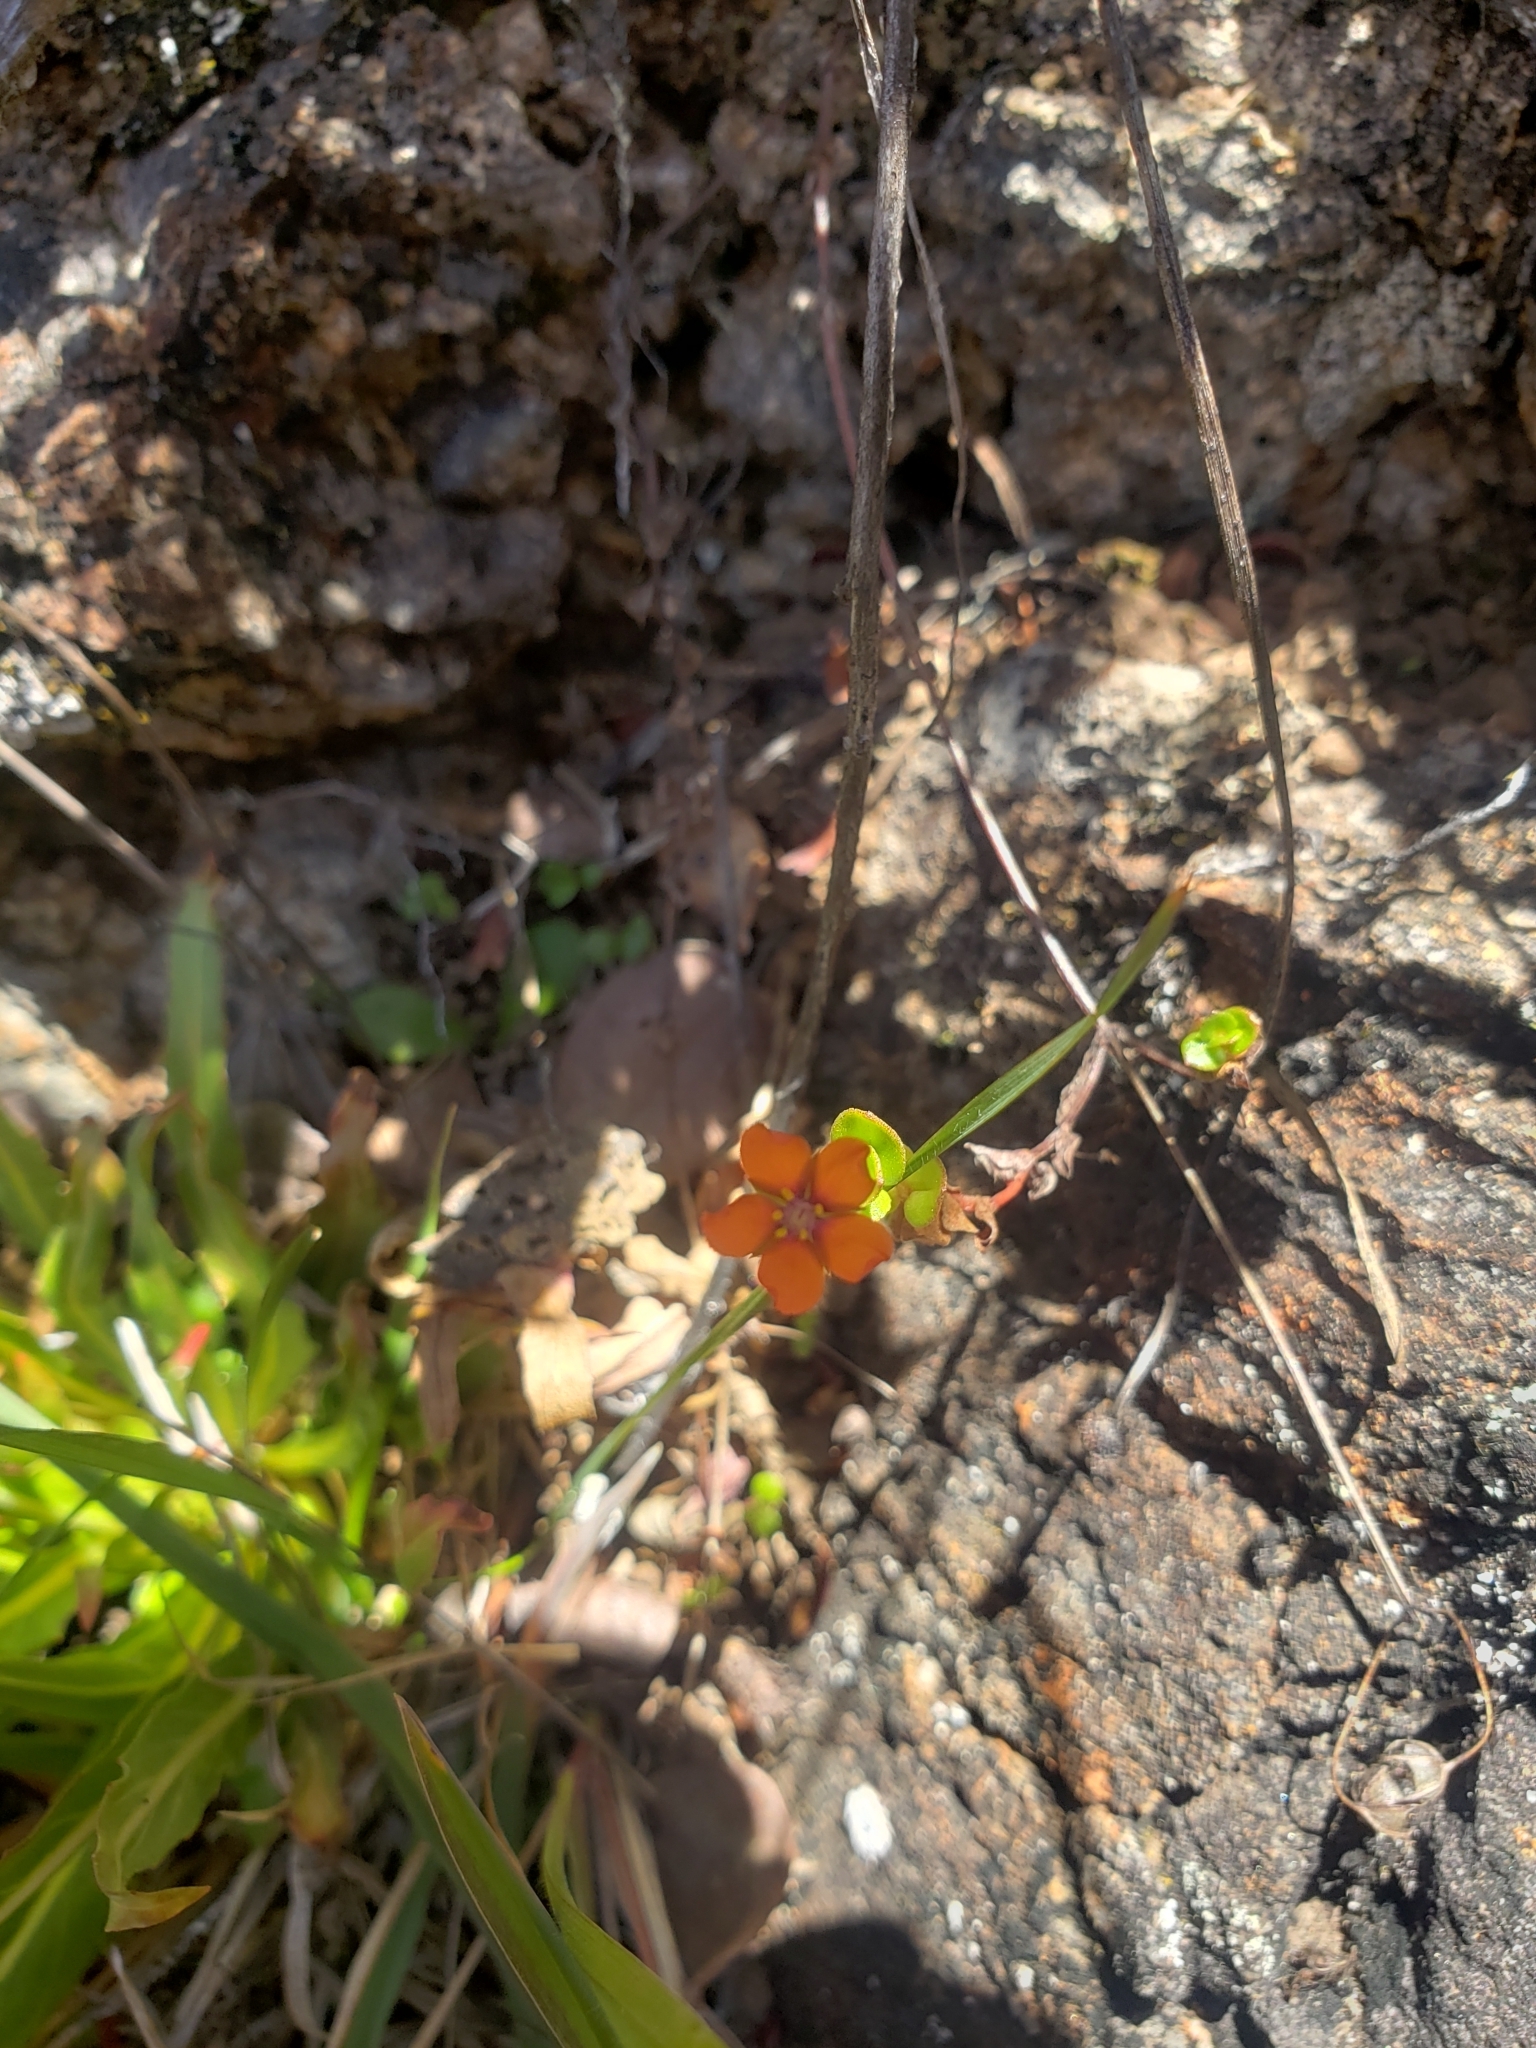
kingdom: Plantae
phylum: Tracheophyta
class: Magnoliopsida
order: Ericales
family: Primulaceae
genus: Lysimachia
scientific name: Lysimachia arvensis
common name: Scarlet pimpernel
